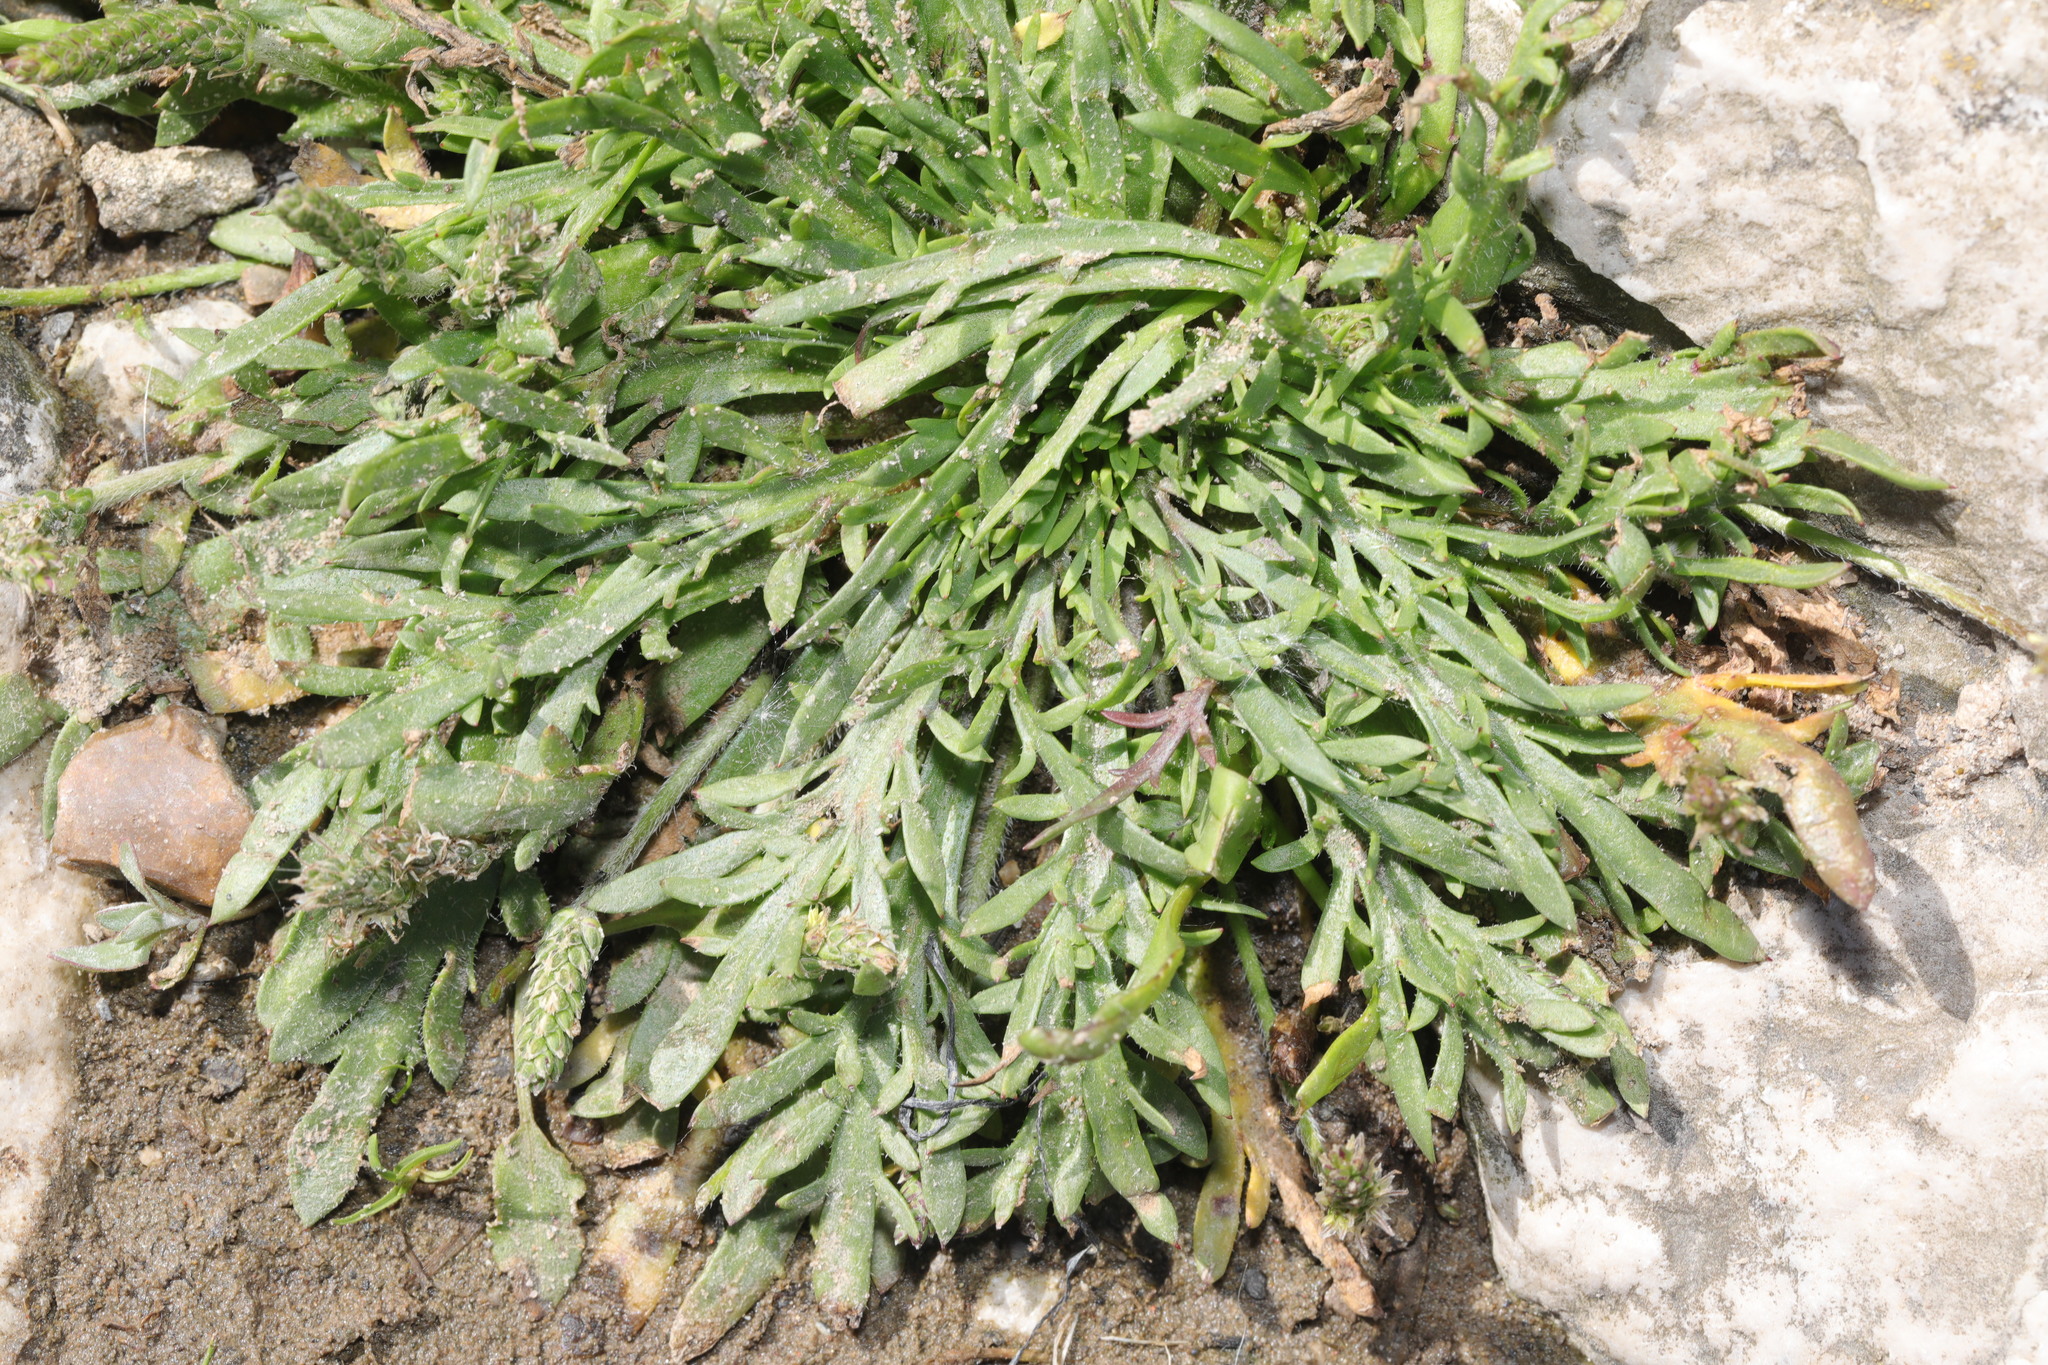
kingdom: Plantae
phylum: Tracheophyta
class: Magnoliopsida
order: Lamiales
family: Plantaginaceae
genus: Plantago
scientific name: Plantago coronopus
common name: Buck's-horn plantain
